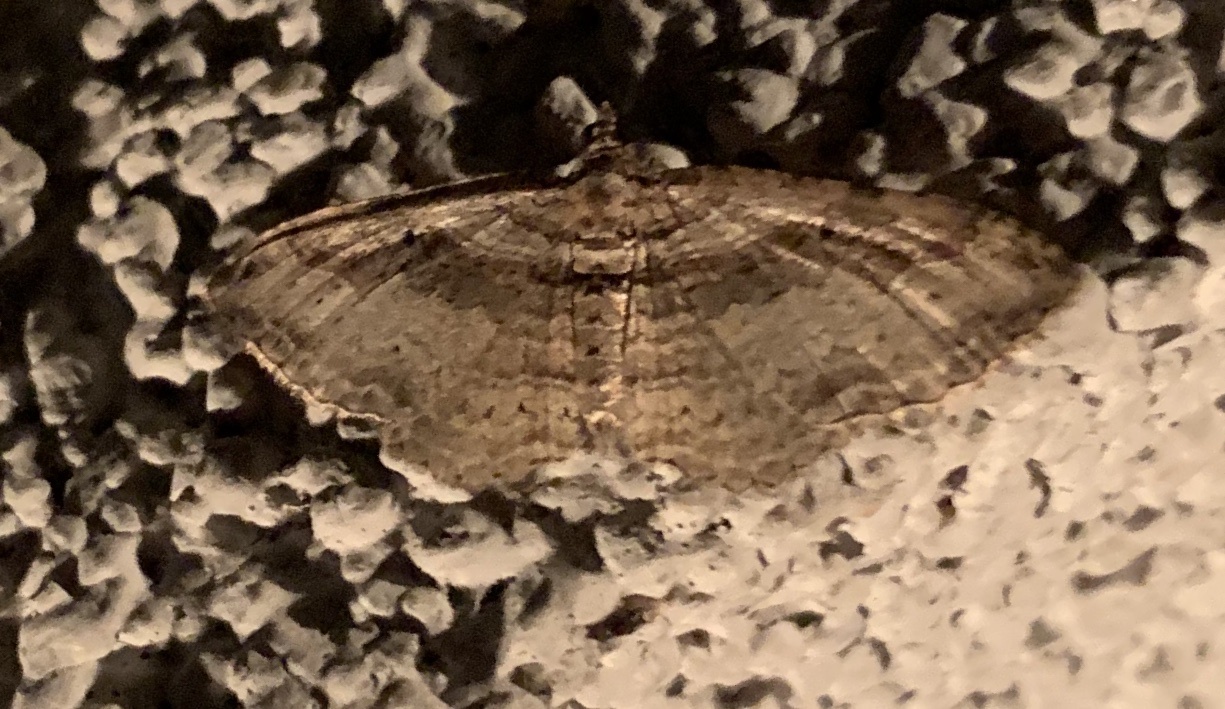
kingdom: Animalia
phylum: Arthropoda
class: Insecta
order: Lepidoptera
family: Geometridae
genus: Costaconvexa
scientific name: Costaconvexa centrostrigaria
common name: Bent-line carpet
